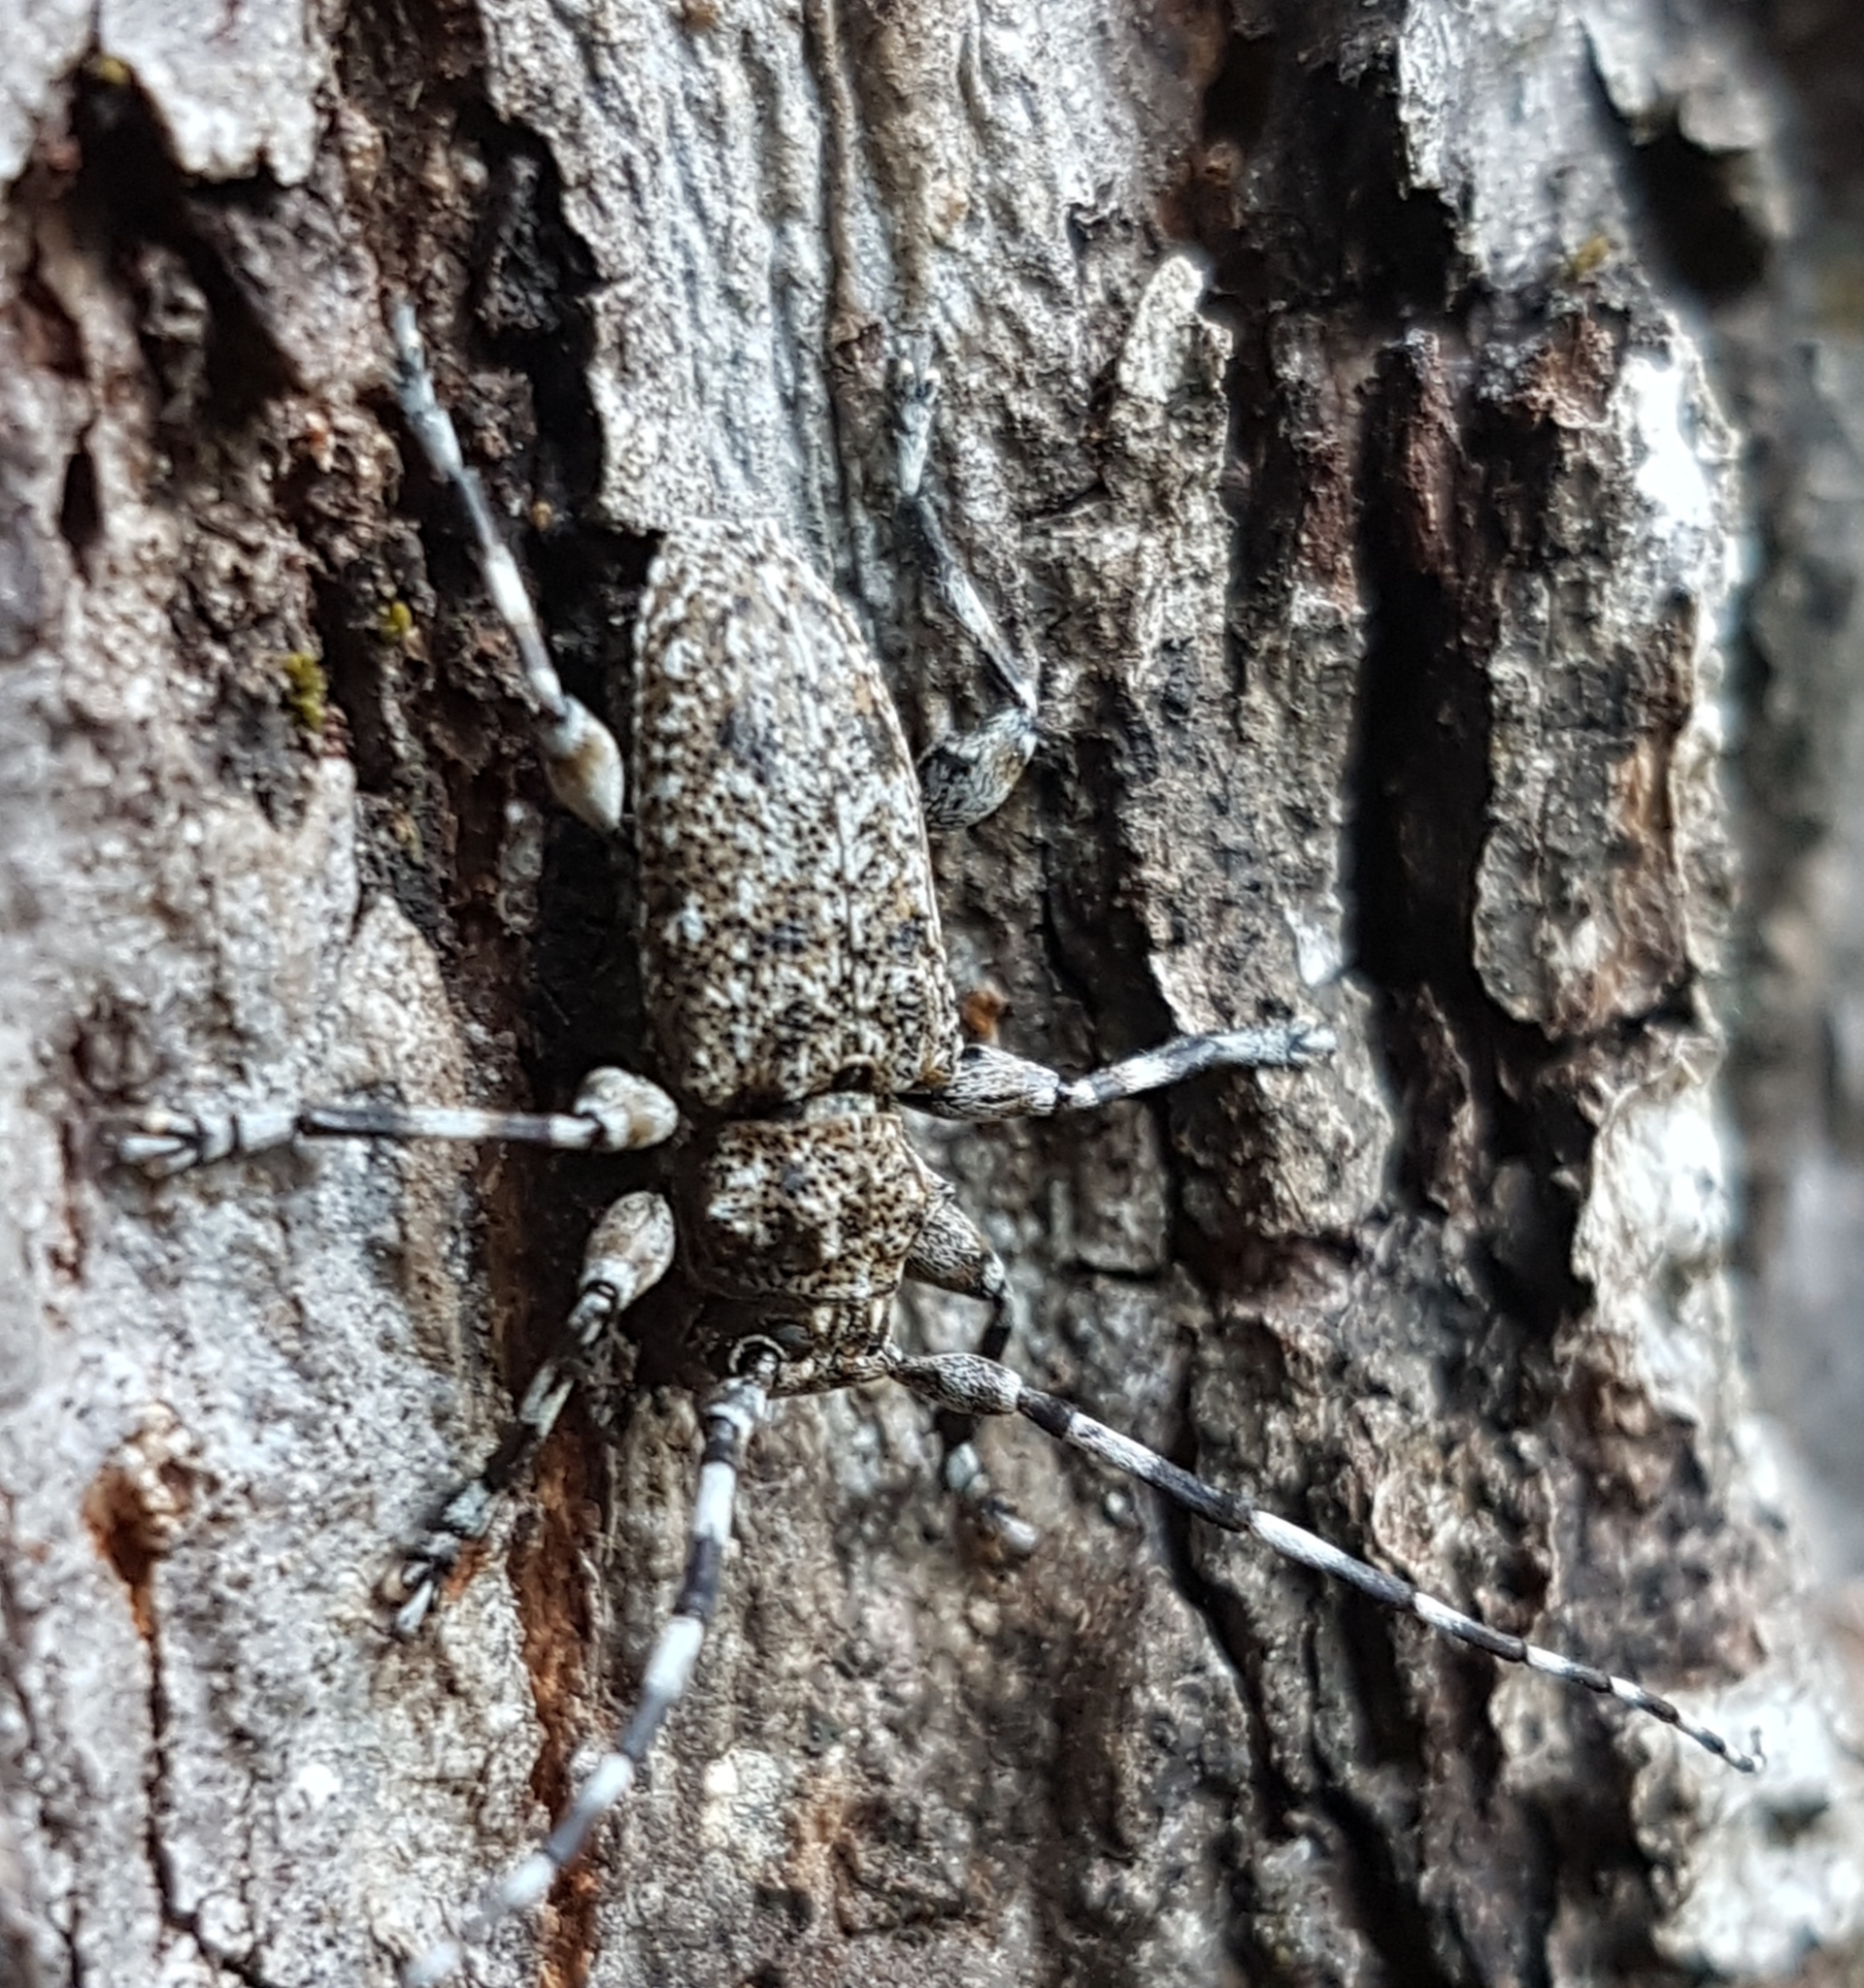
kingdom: Animalia
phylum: Arthropoda
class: Insecta
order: Coleoptera
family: Cerambycidae
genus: Aegomorphus
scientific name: Aegomorphus clavipes
